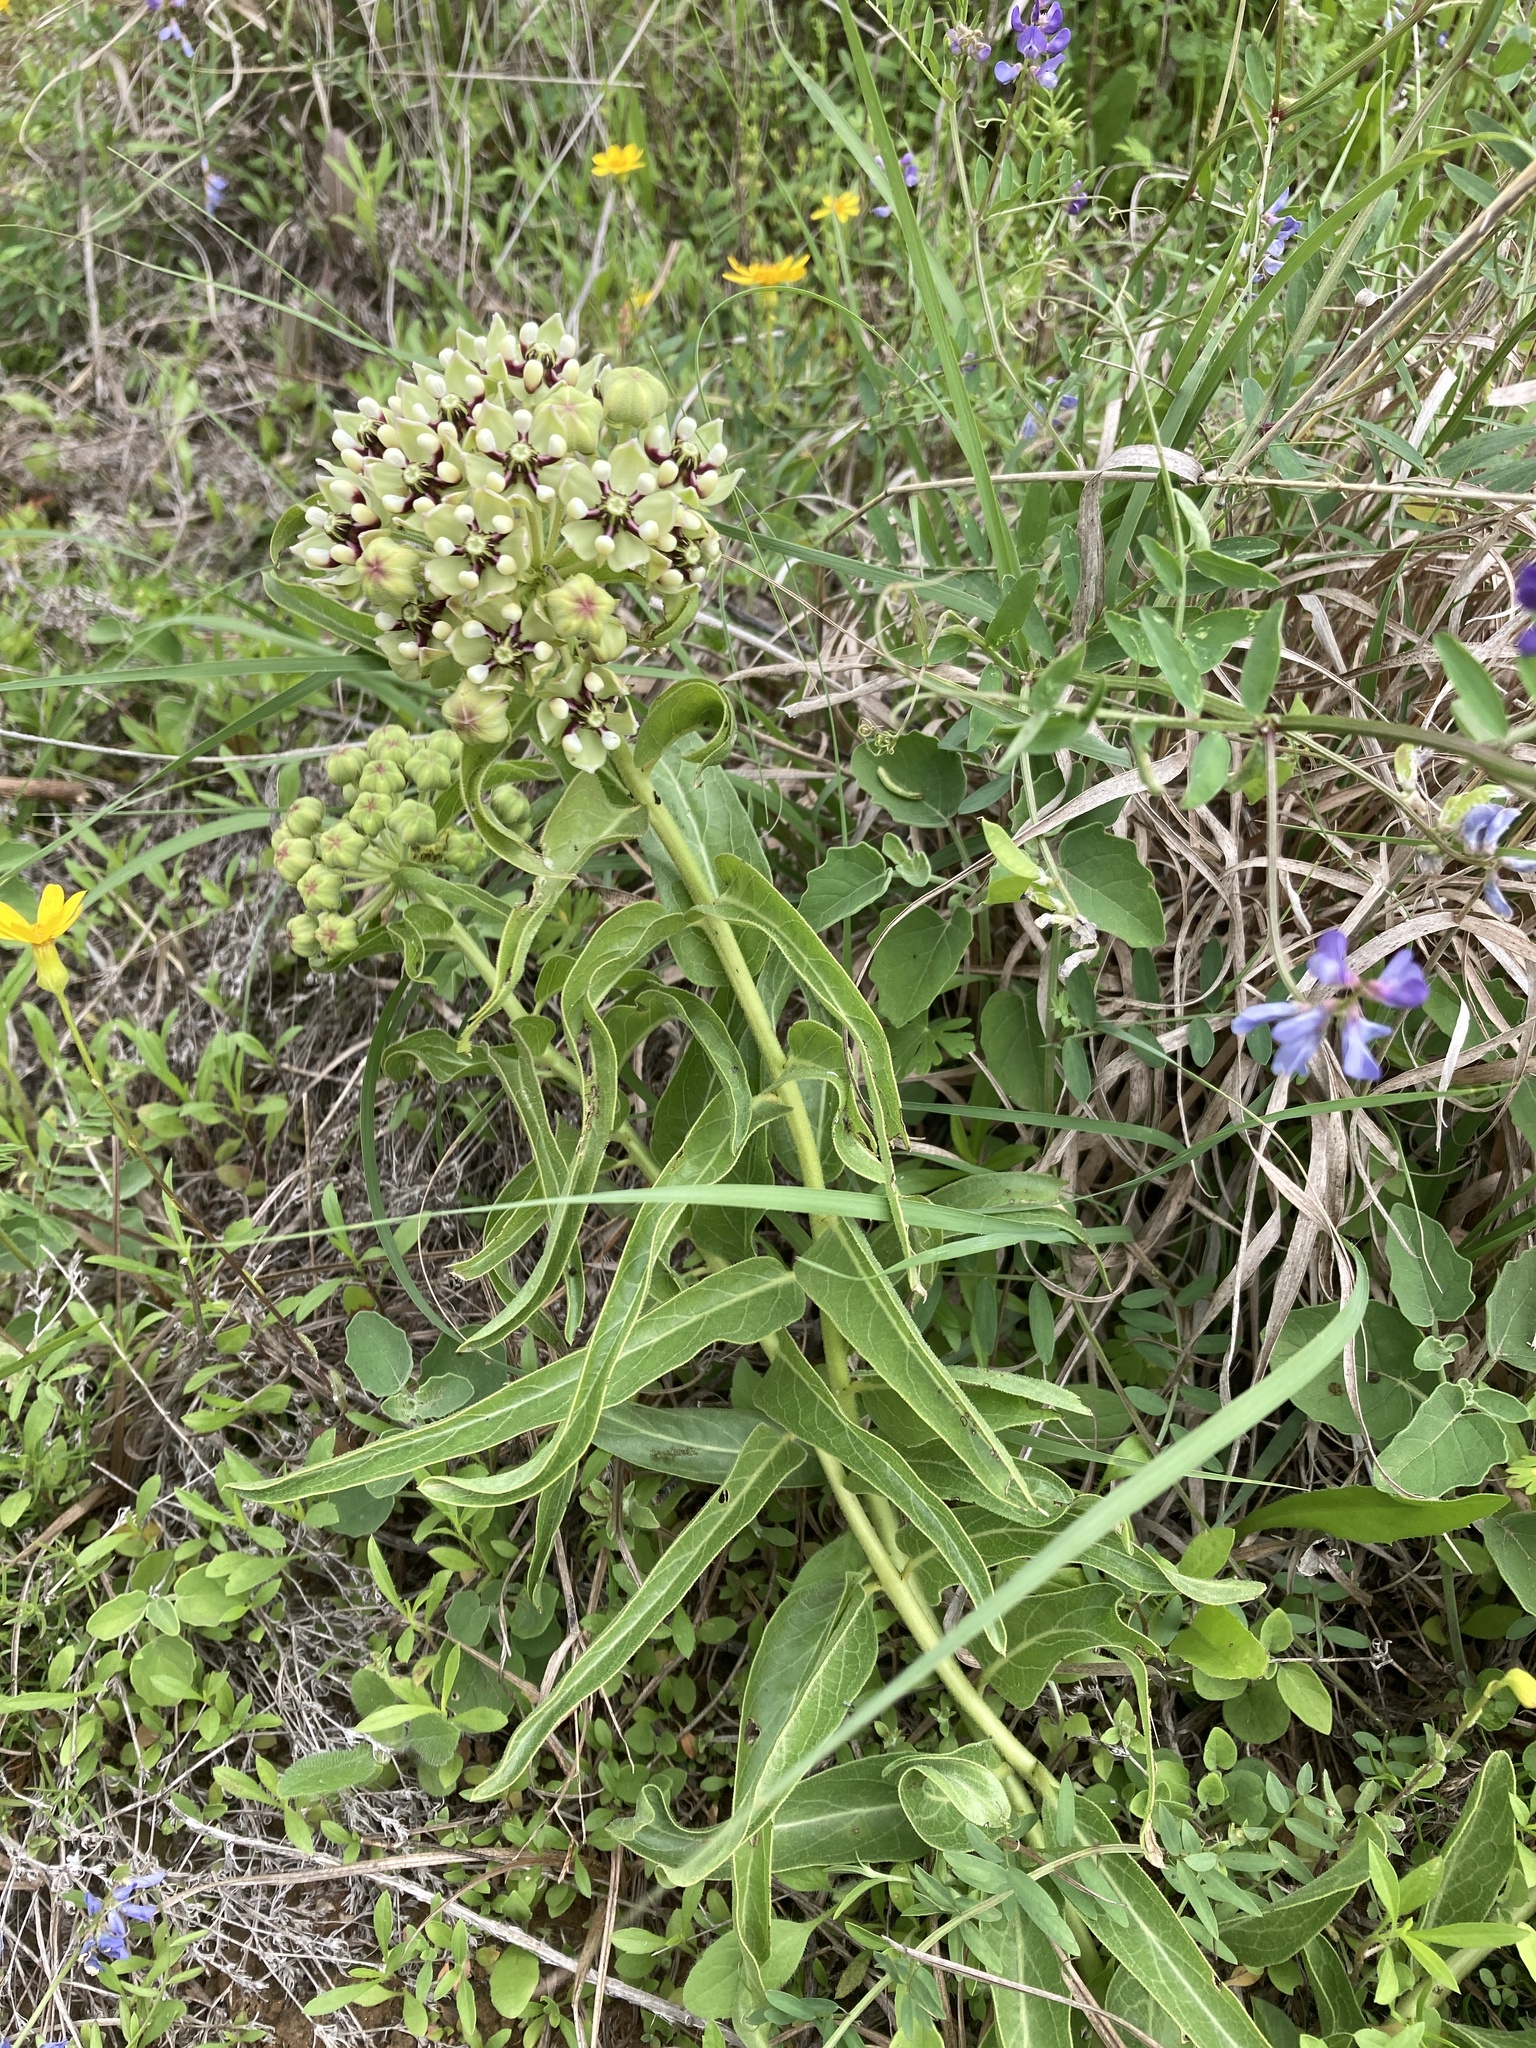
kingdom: Plantae
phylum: Tracheophyta
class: Magnoliopsida
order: Gentianales
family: Apocynaceae
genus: Asclepias
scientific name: Asclepias asperula
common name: Antelope horns
